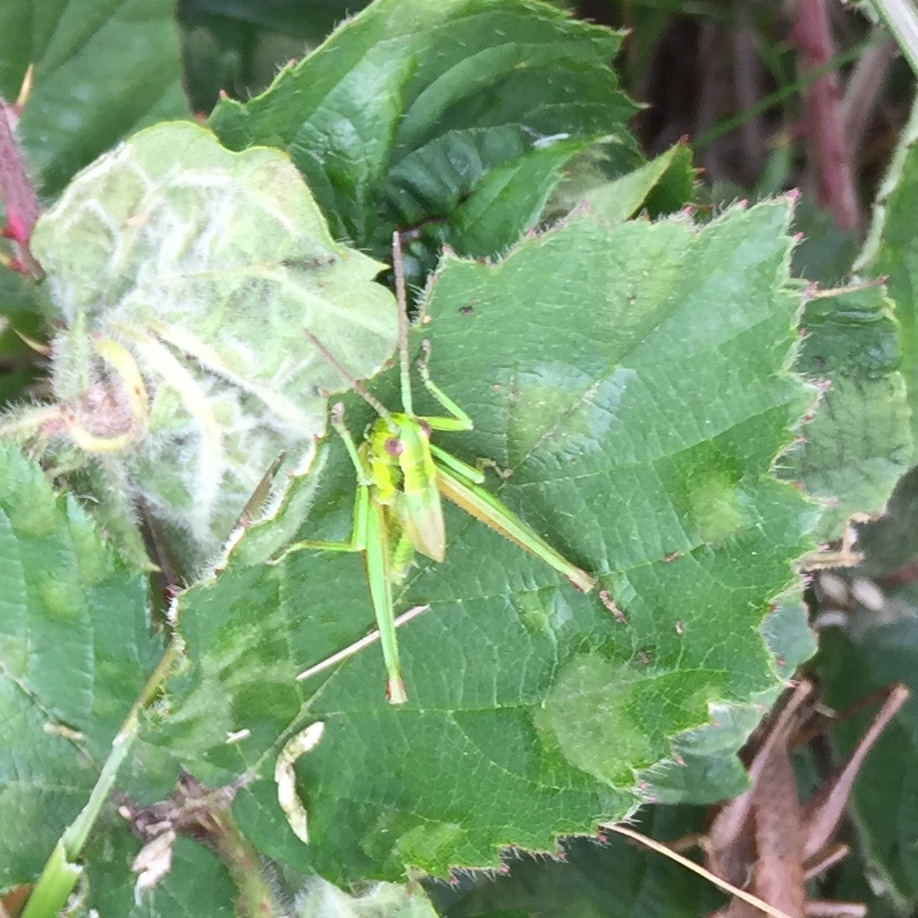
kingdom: Animalia
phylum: Arthropoda
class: Insecta
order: Orthoptera
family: Acrididae
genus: Euthystira
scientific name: Euthystira brachyptera
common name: Small gold grasshopper
